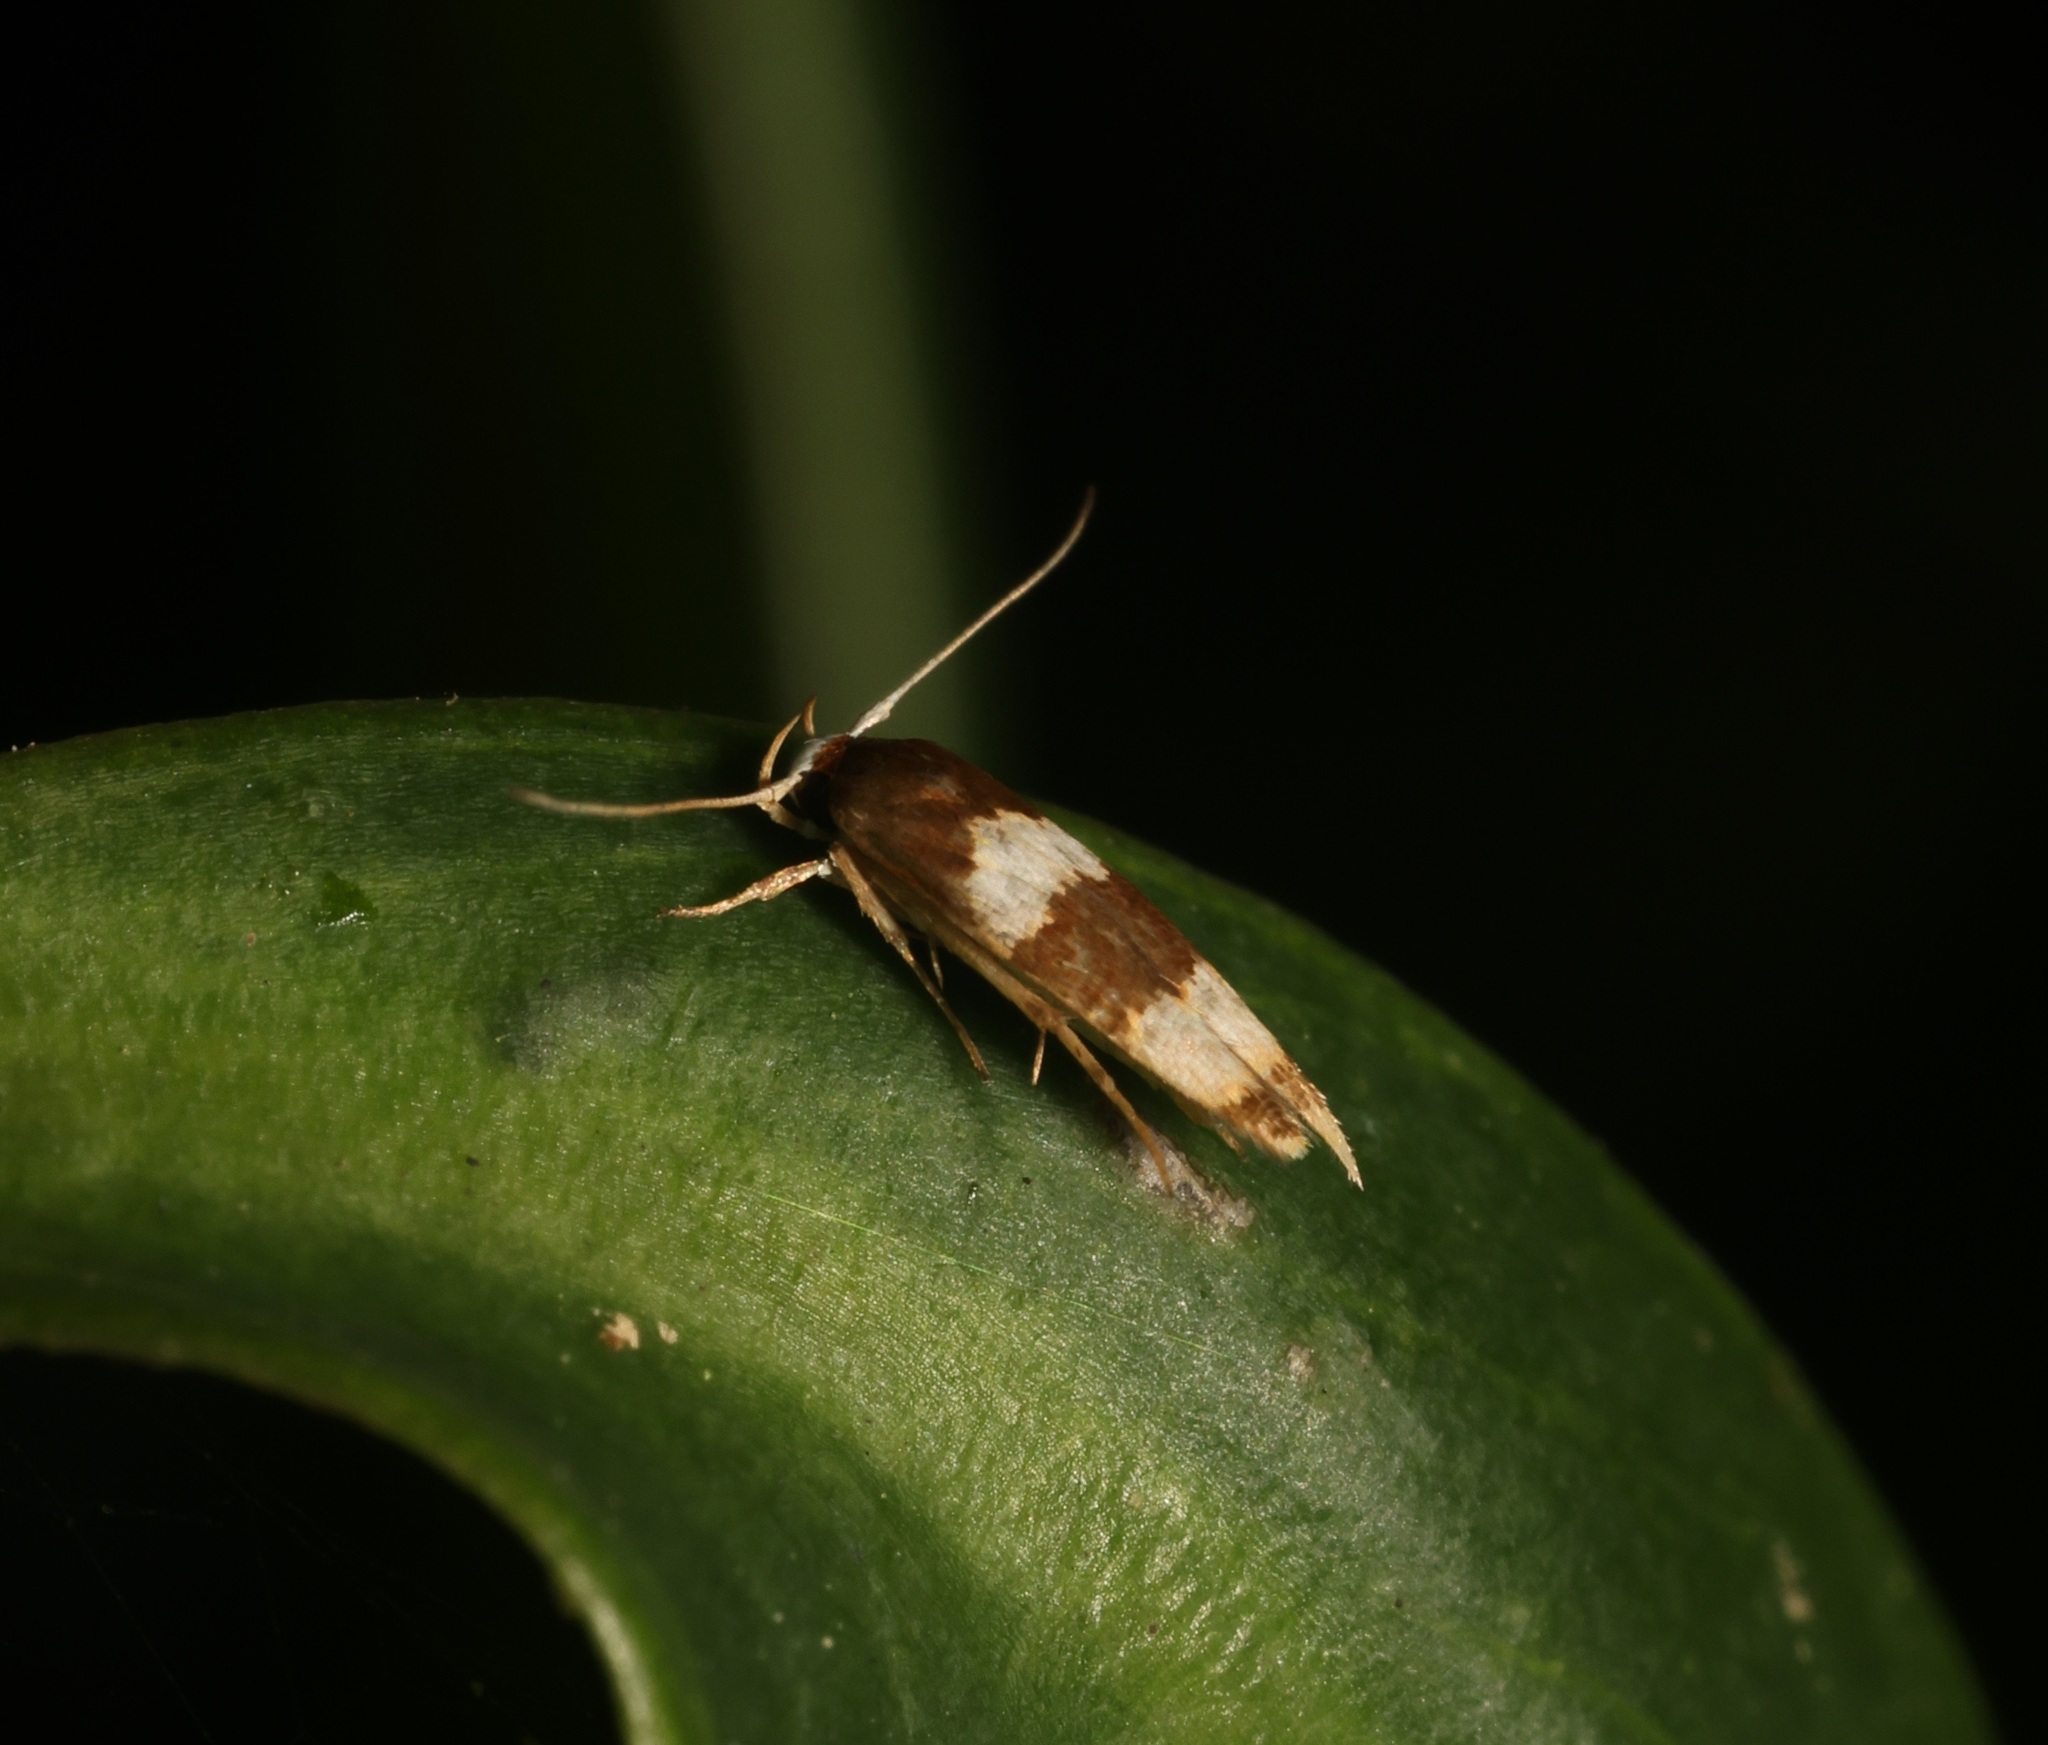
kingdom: Animalia
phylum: Arthropoda
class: Insecta
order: Lepidoptera
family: Stathmopodidae
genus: Stathmopoda
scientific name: Stathmopoda
